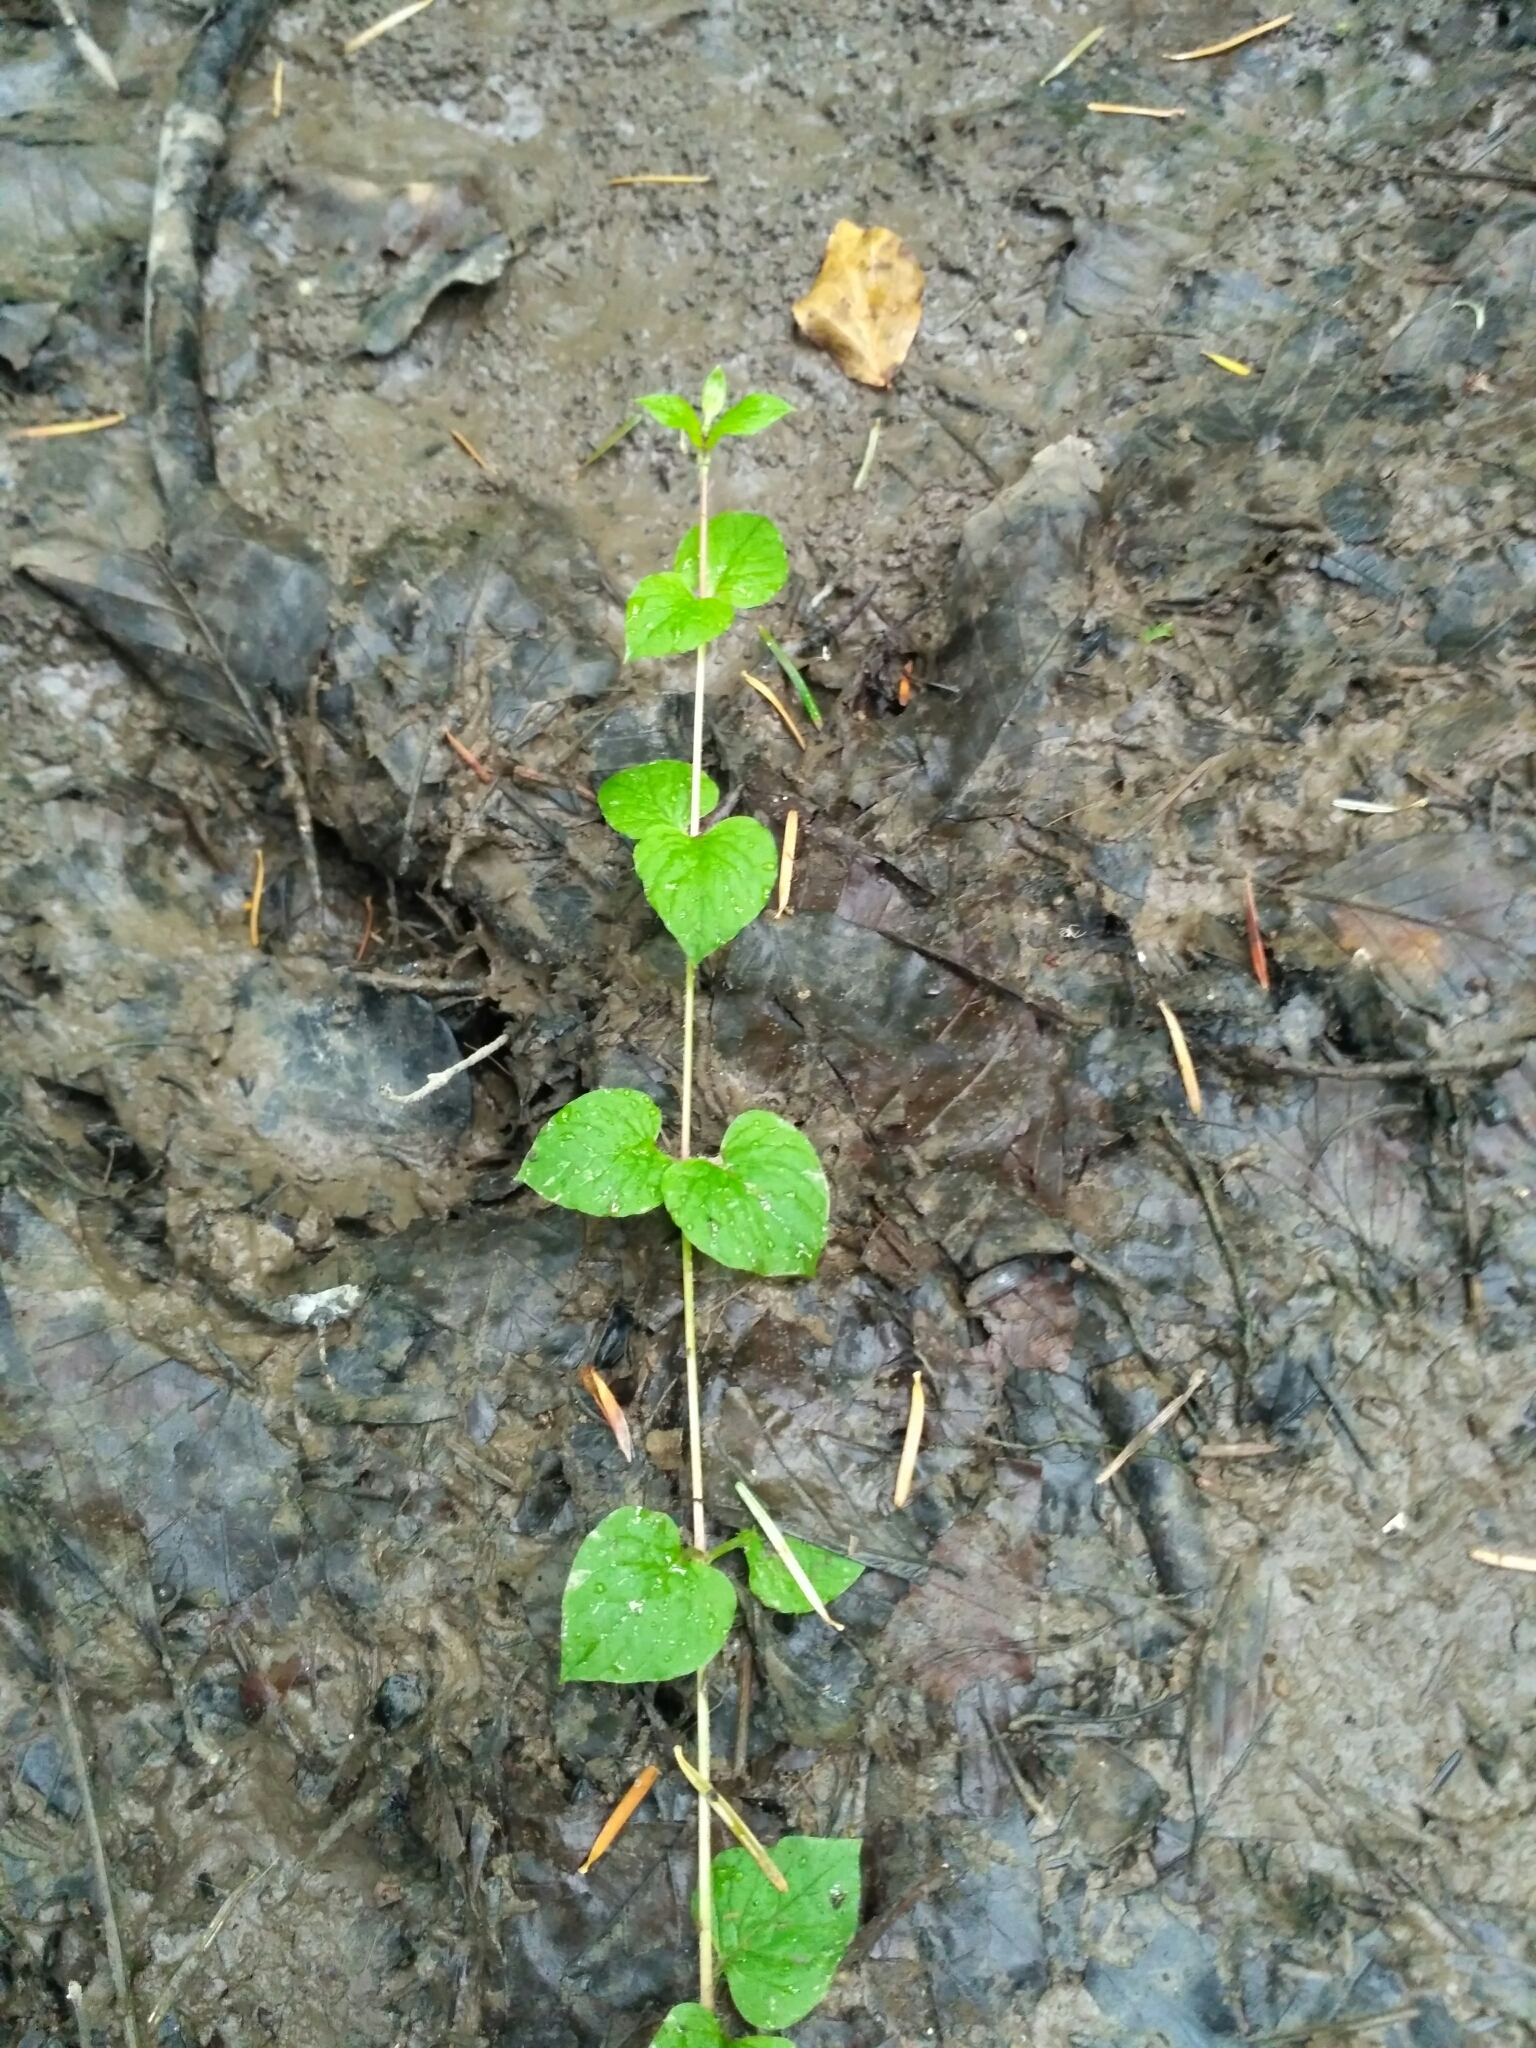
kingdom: Plantae
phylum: Tracheophyta
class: Magnoliopsida
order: Caryophyllales
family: Caryophyllaceae
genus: Stellaria
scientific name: Stellaria nemorum
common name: Wood stitchwort
